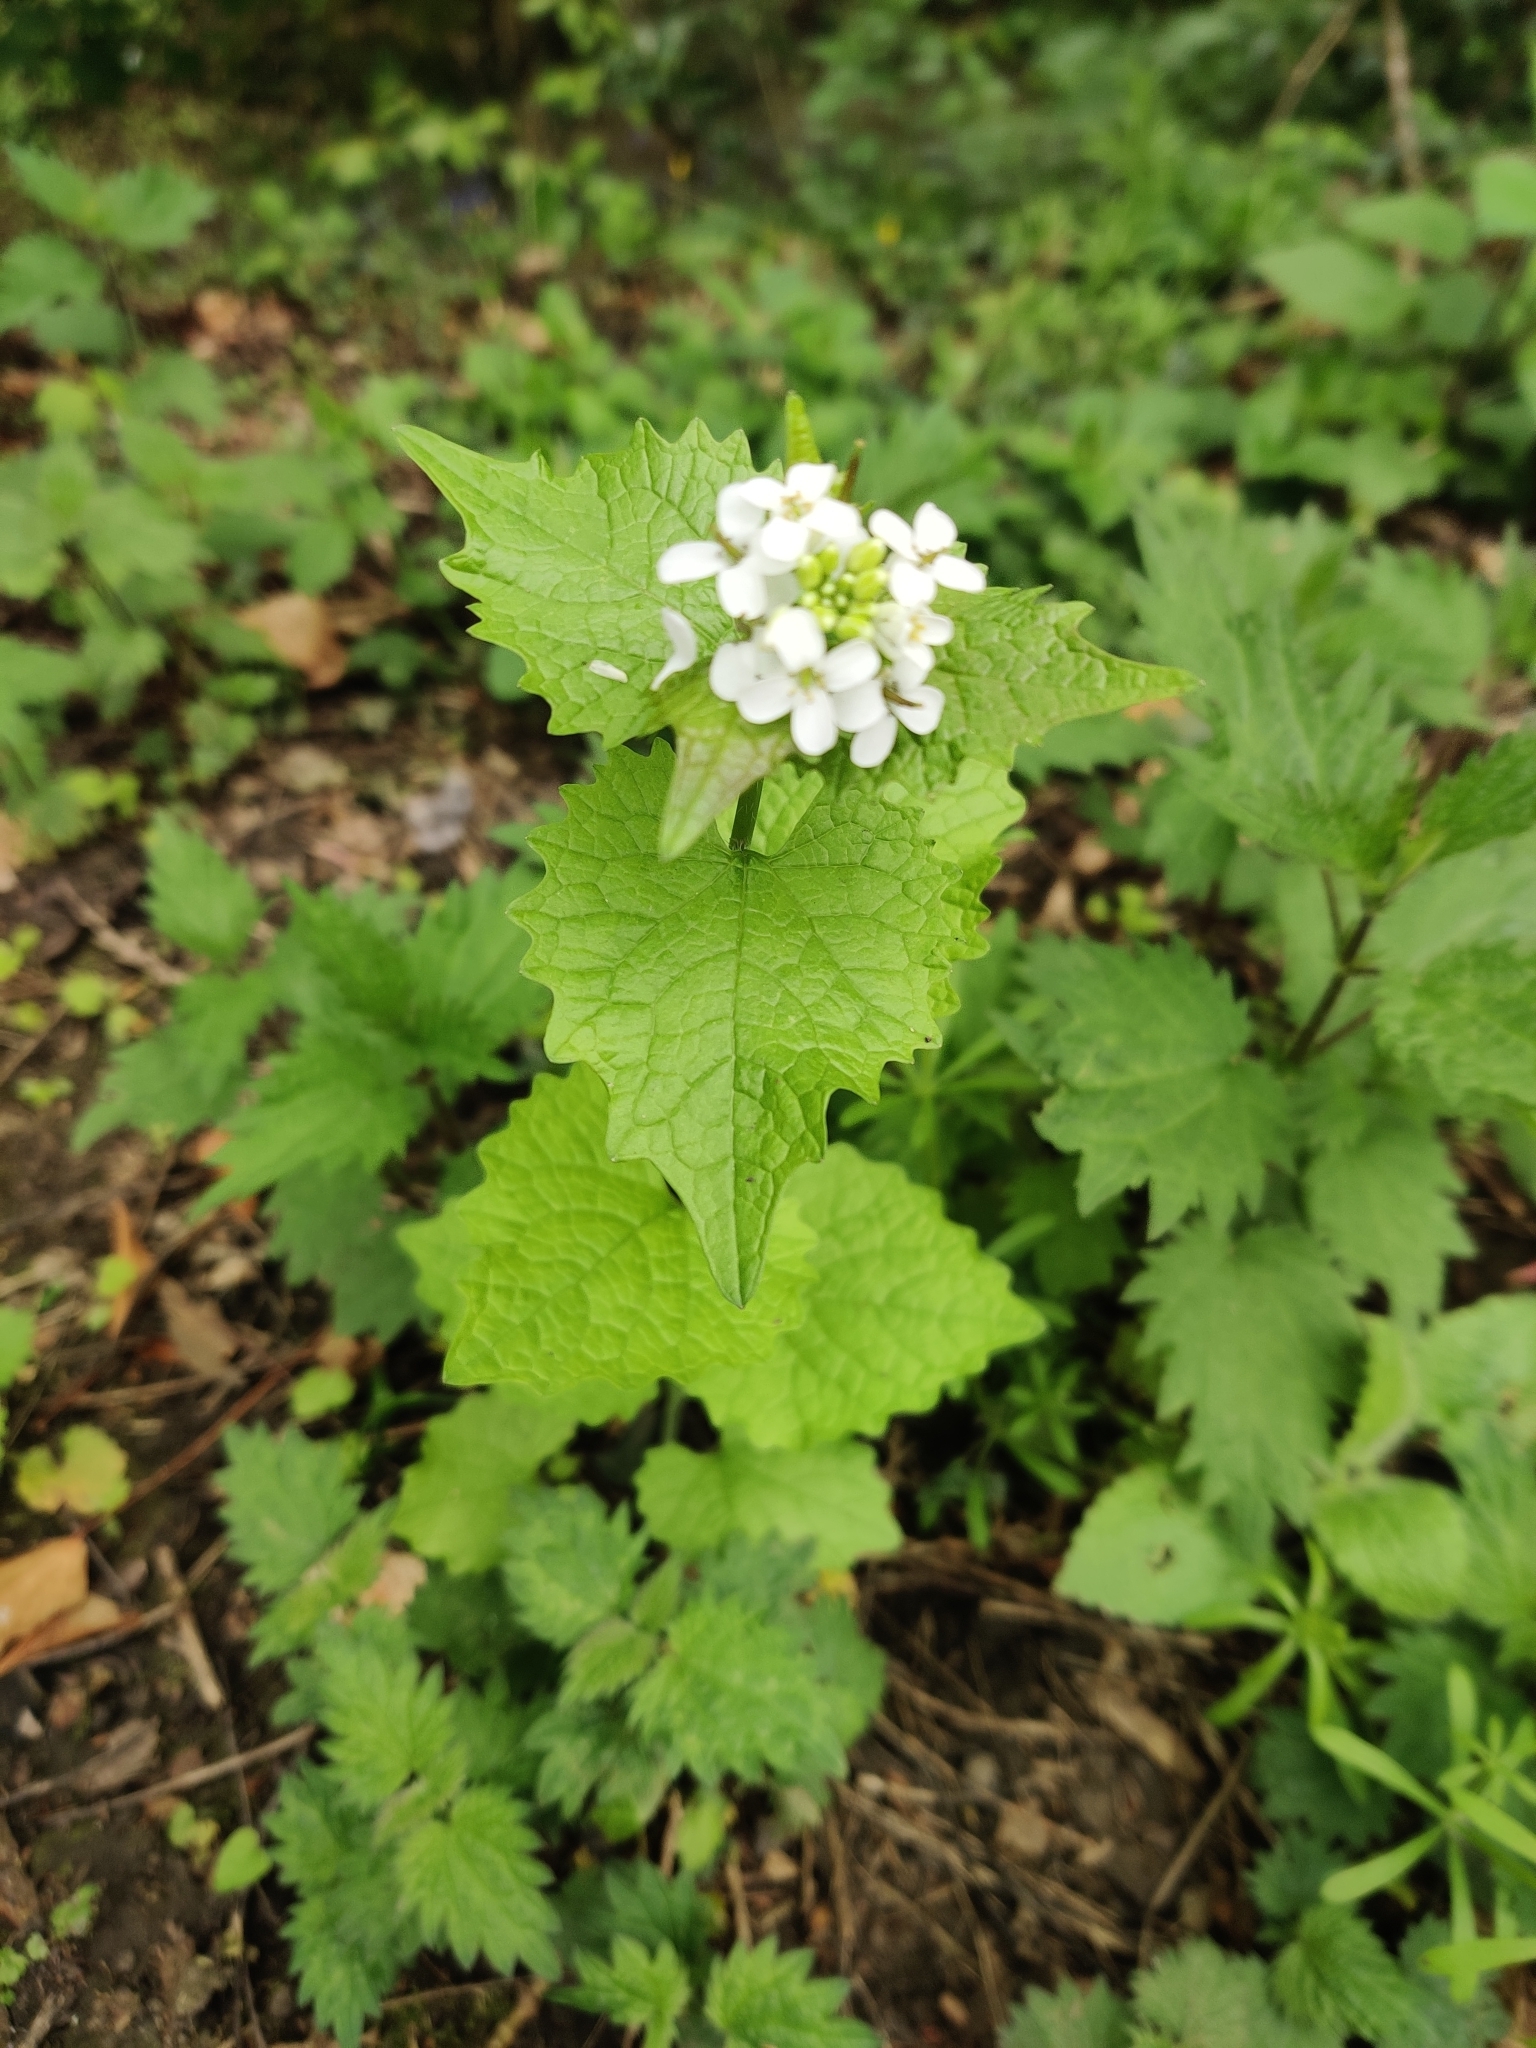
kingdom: Plantae
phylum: Tracheophyta
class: Magnoliopsida
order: Brassicales
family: Brassicaceae
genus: Alliaria
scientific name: Alliaria petiolata
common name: Garlic mustard
